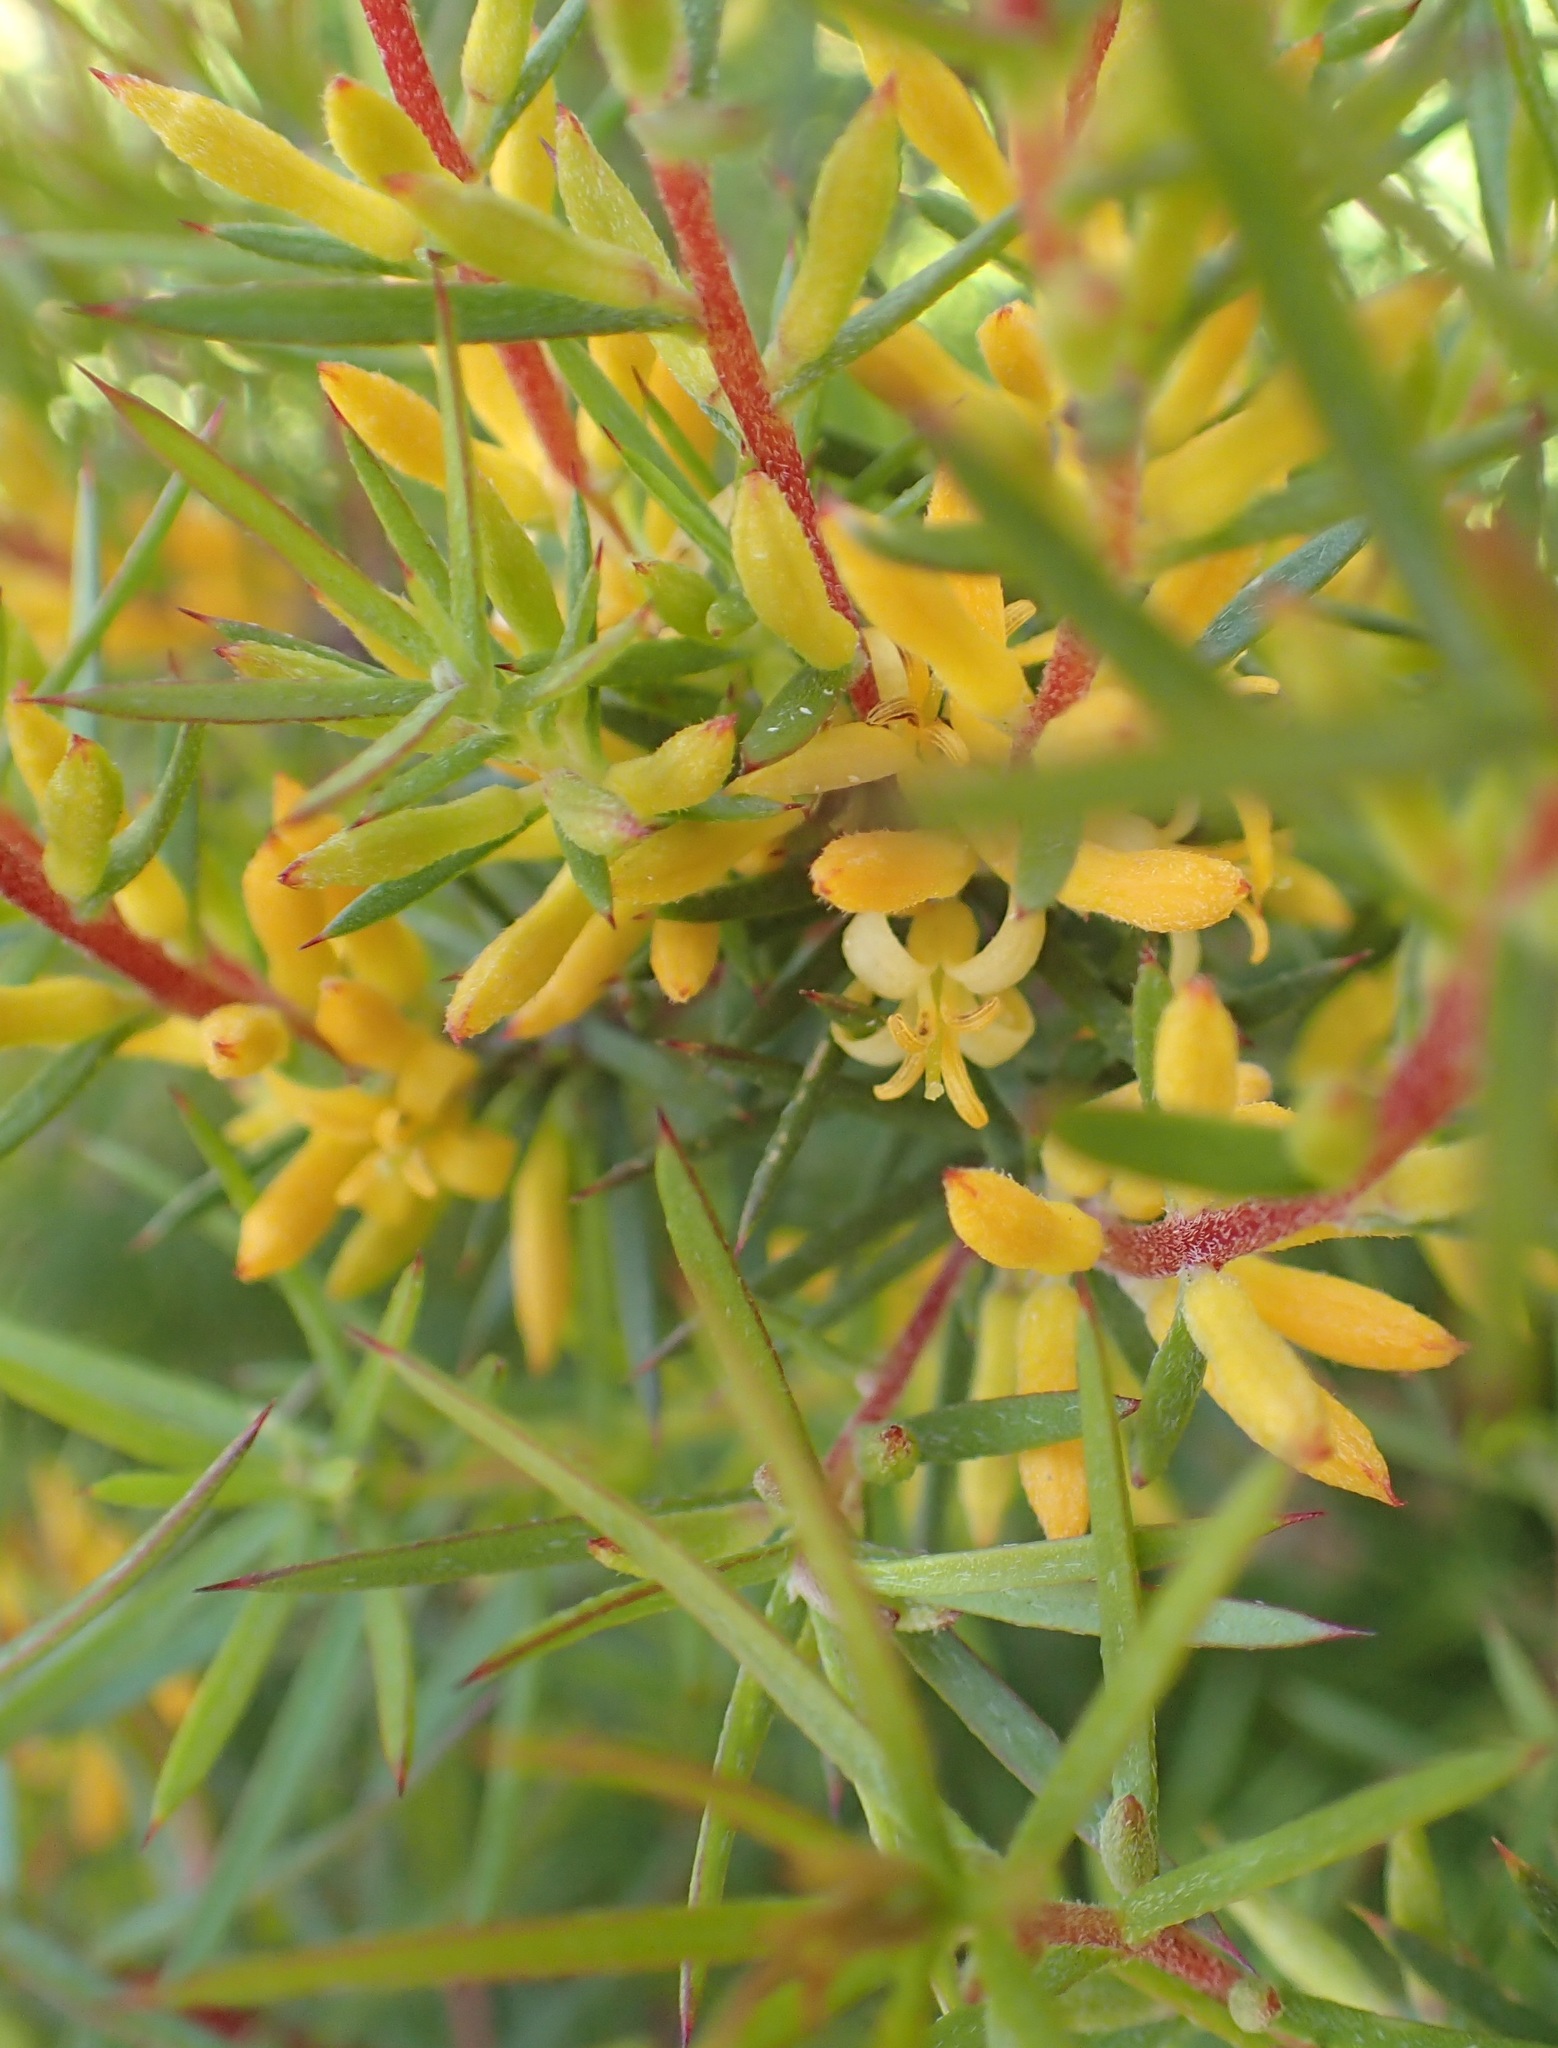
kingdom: Plantae
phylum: Tracheophyta
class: Magnoliopsida
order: Proteales
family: Proteaceae
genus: Persoonia
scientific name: Persoonia juniperina
